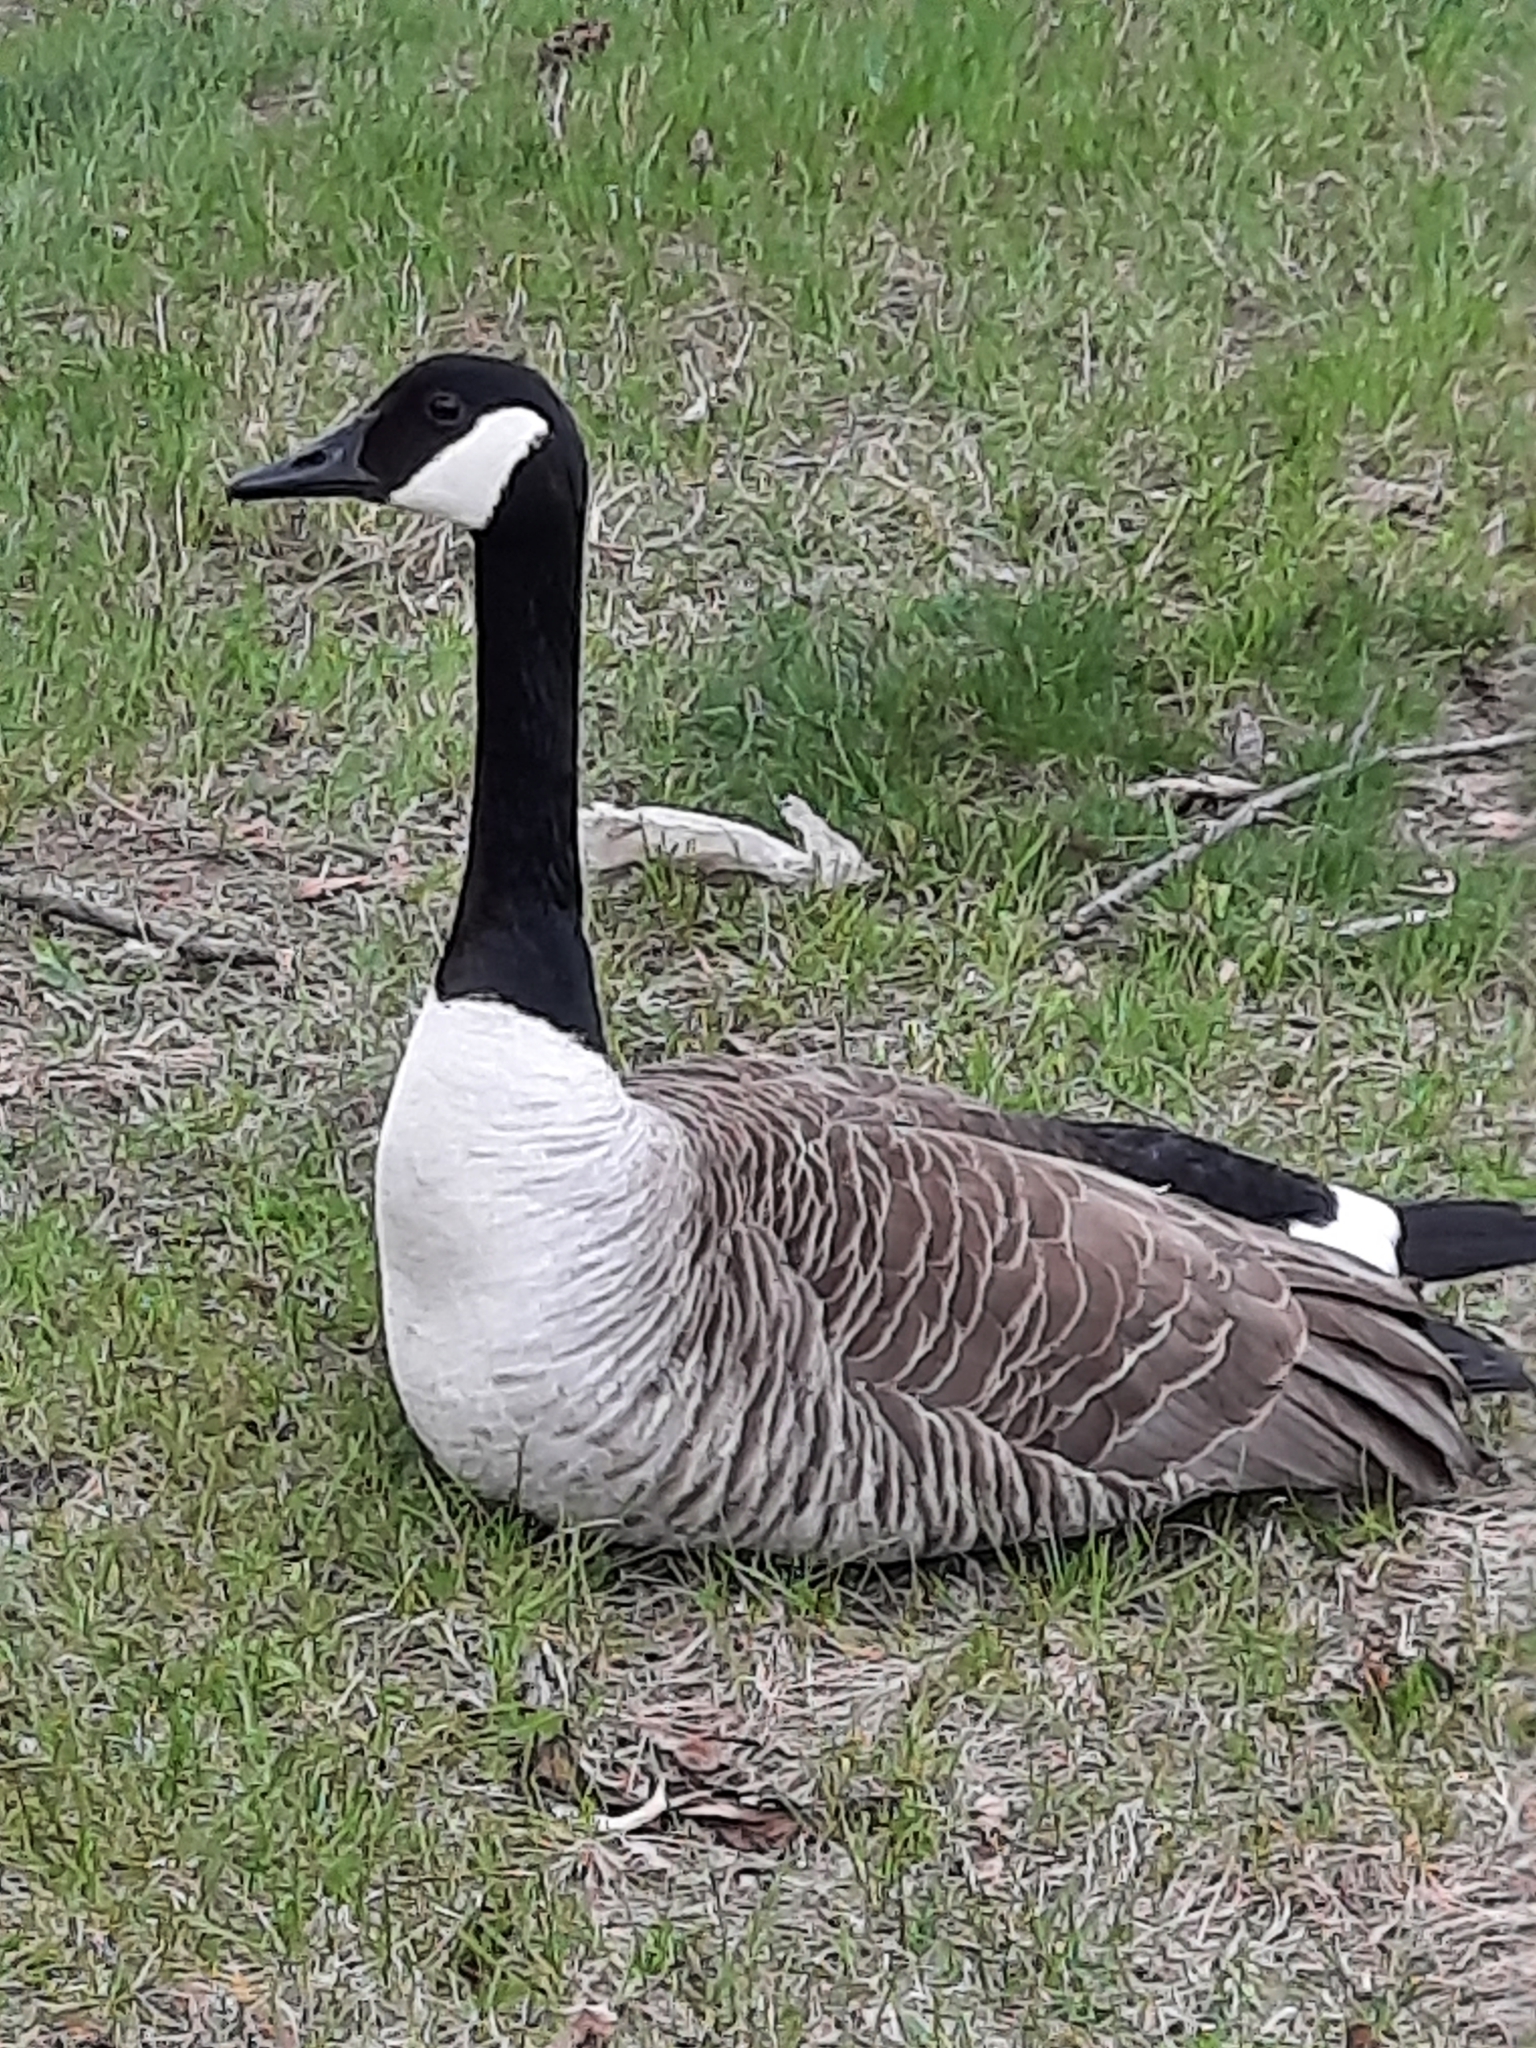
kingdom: Animalia
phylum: Chordata
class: Aves
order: Anseriformes
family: Anatidae
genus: Branta
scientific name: Branta canadensis
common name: Canada goose
